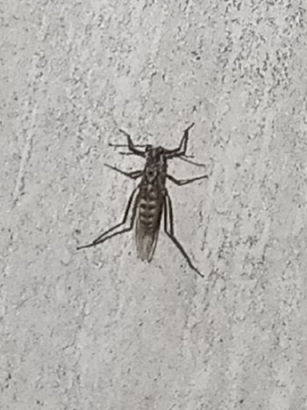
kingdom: Animalia
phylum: Arthropoda
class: Insecta
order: Hemiptera
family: Aphididae
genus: Eulachnus
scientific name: Eulachnus rileyi
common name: Active gray pine needle aphid
